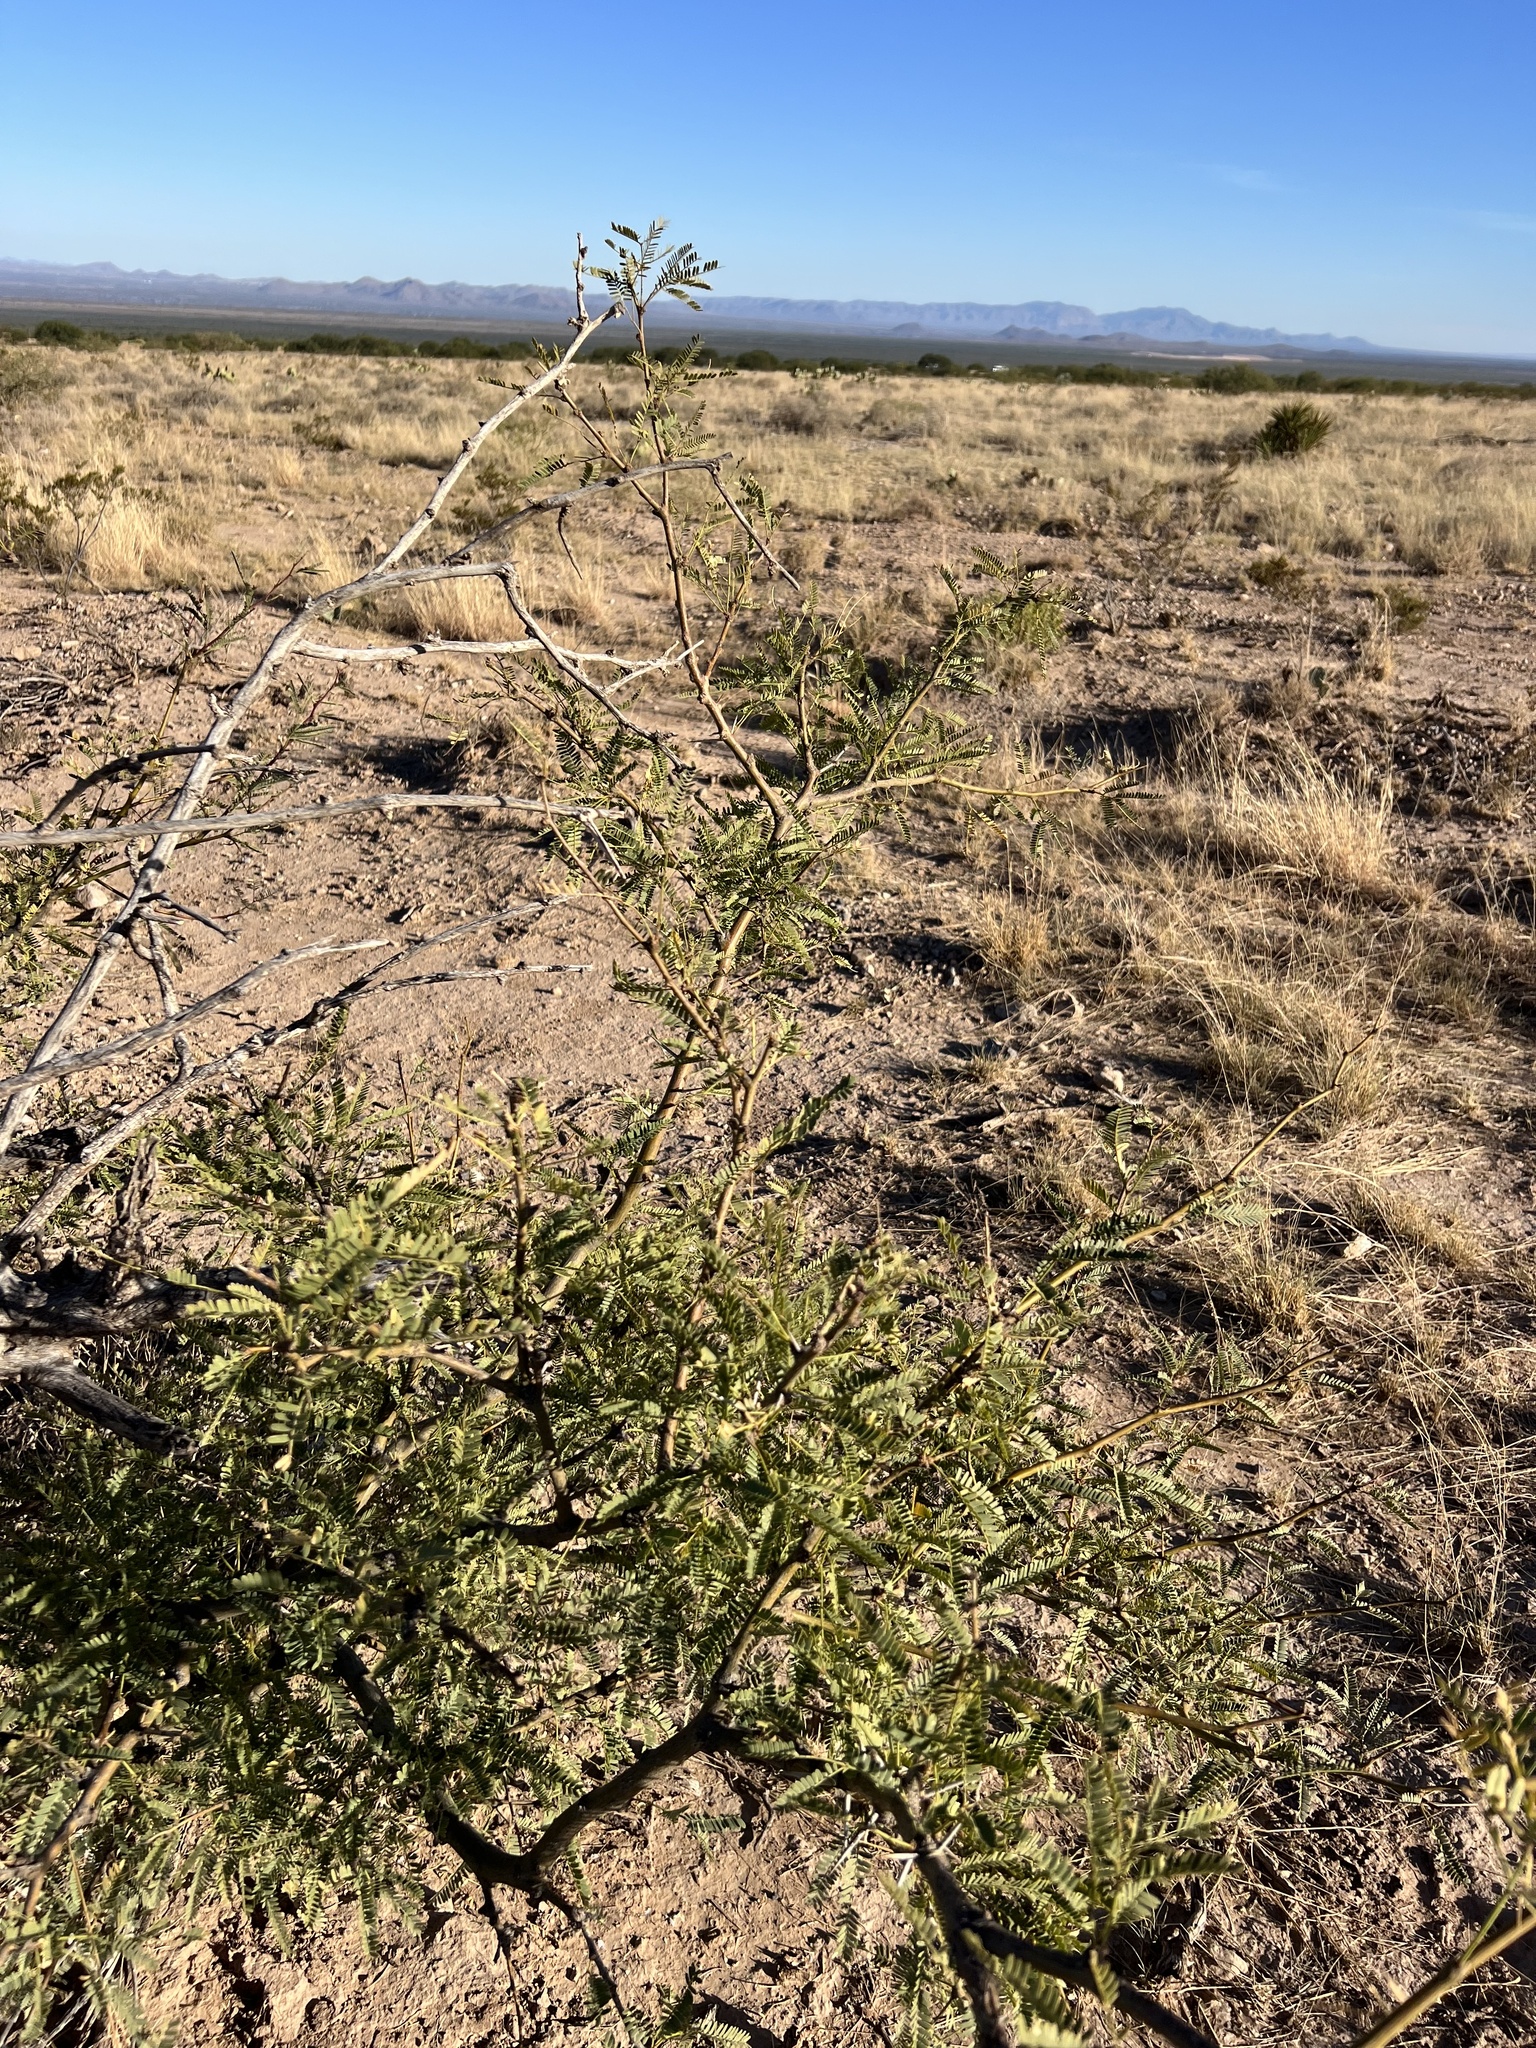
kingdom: Plantae
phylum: Tracheophyta
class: Magnoliopsida
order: Fabales
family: Fabaceae
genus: Prosopis
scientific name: Prosopis velutina
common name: Velvet mesquite
